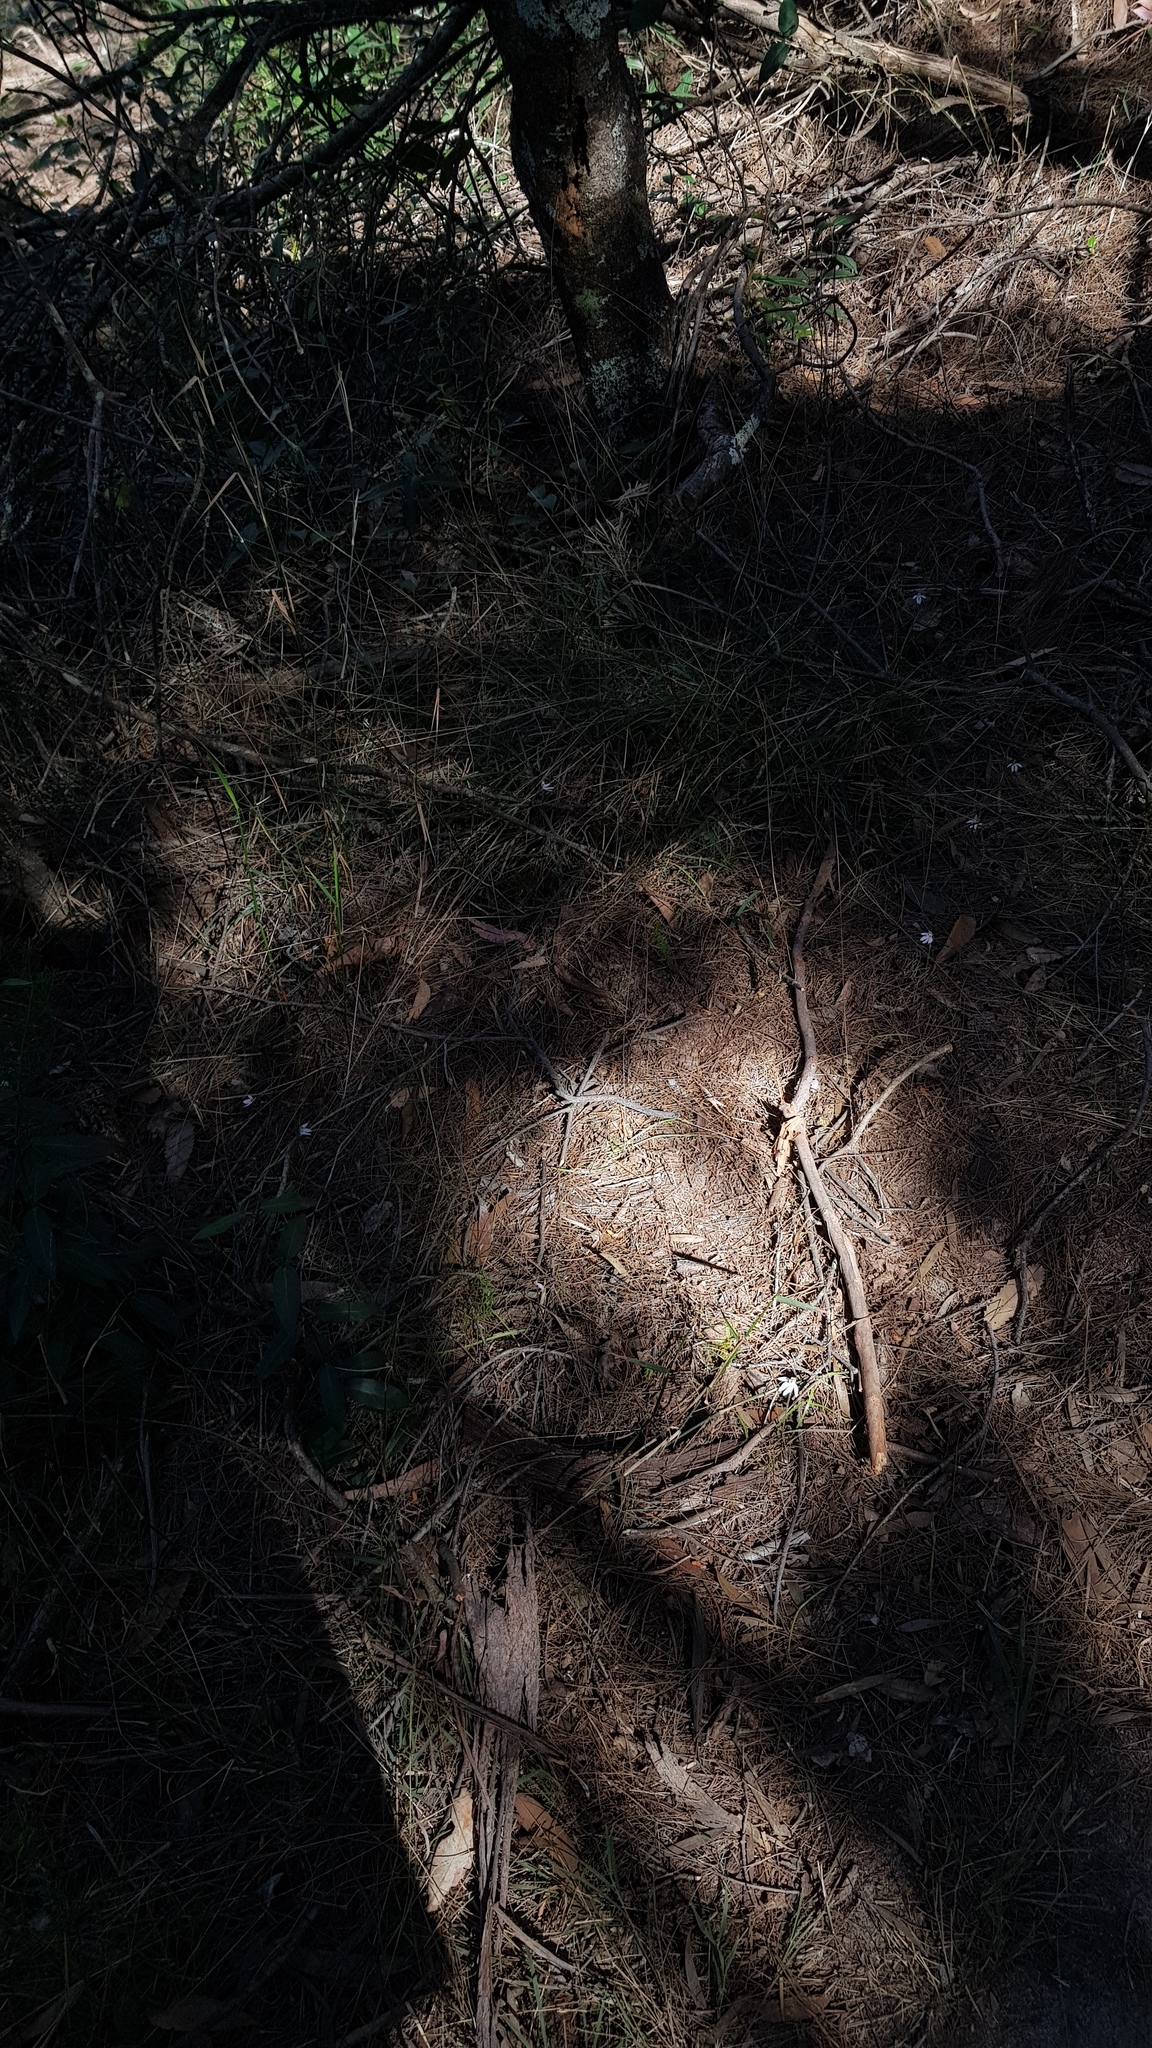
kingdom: Plantae
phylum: Tracheophyta
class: Liliopsida
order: Asparagales
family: Orchidaceae
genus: Caladenia
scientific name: Caladenia carnea
